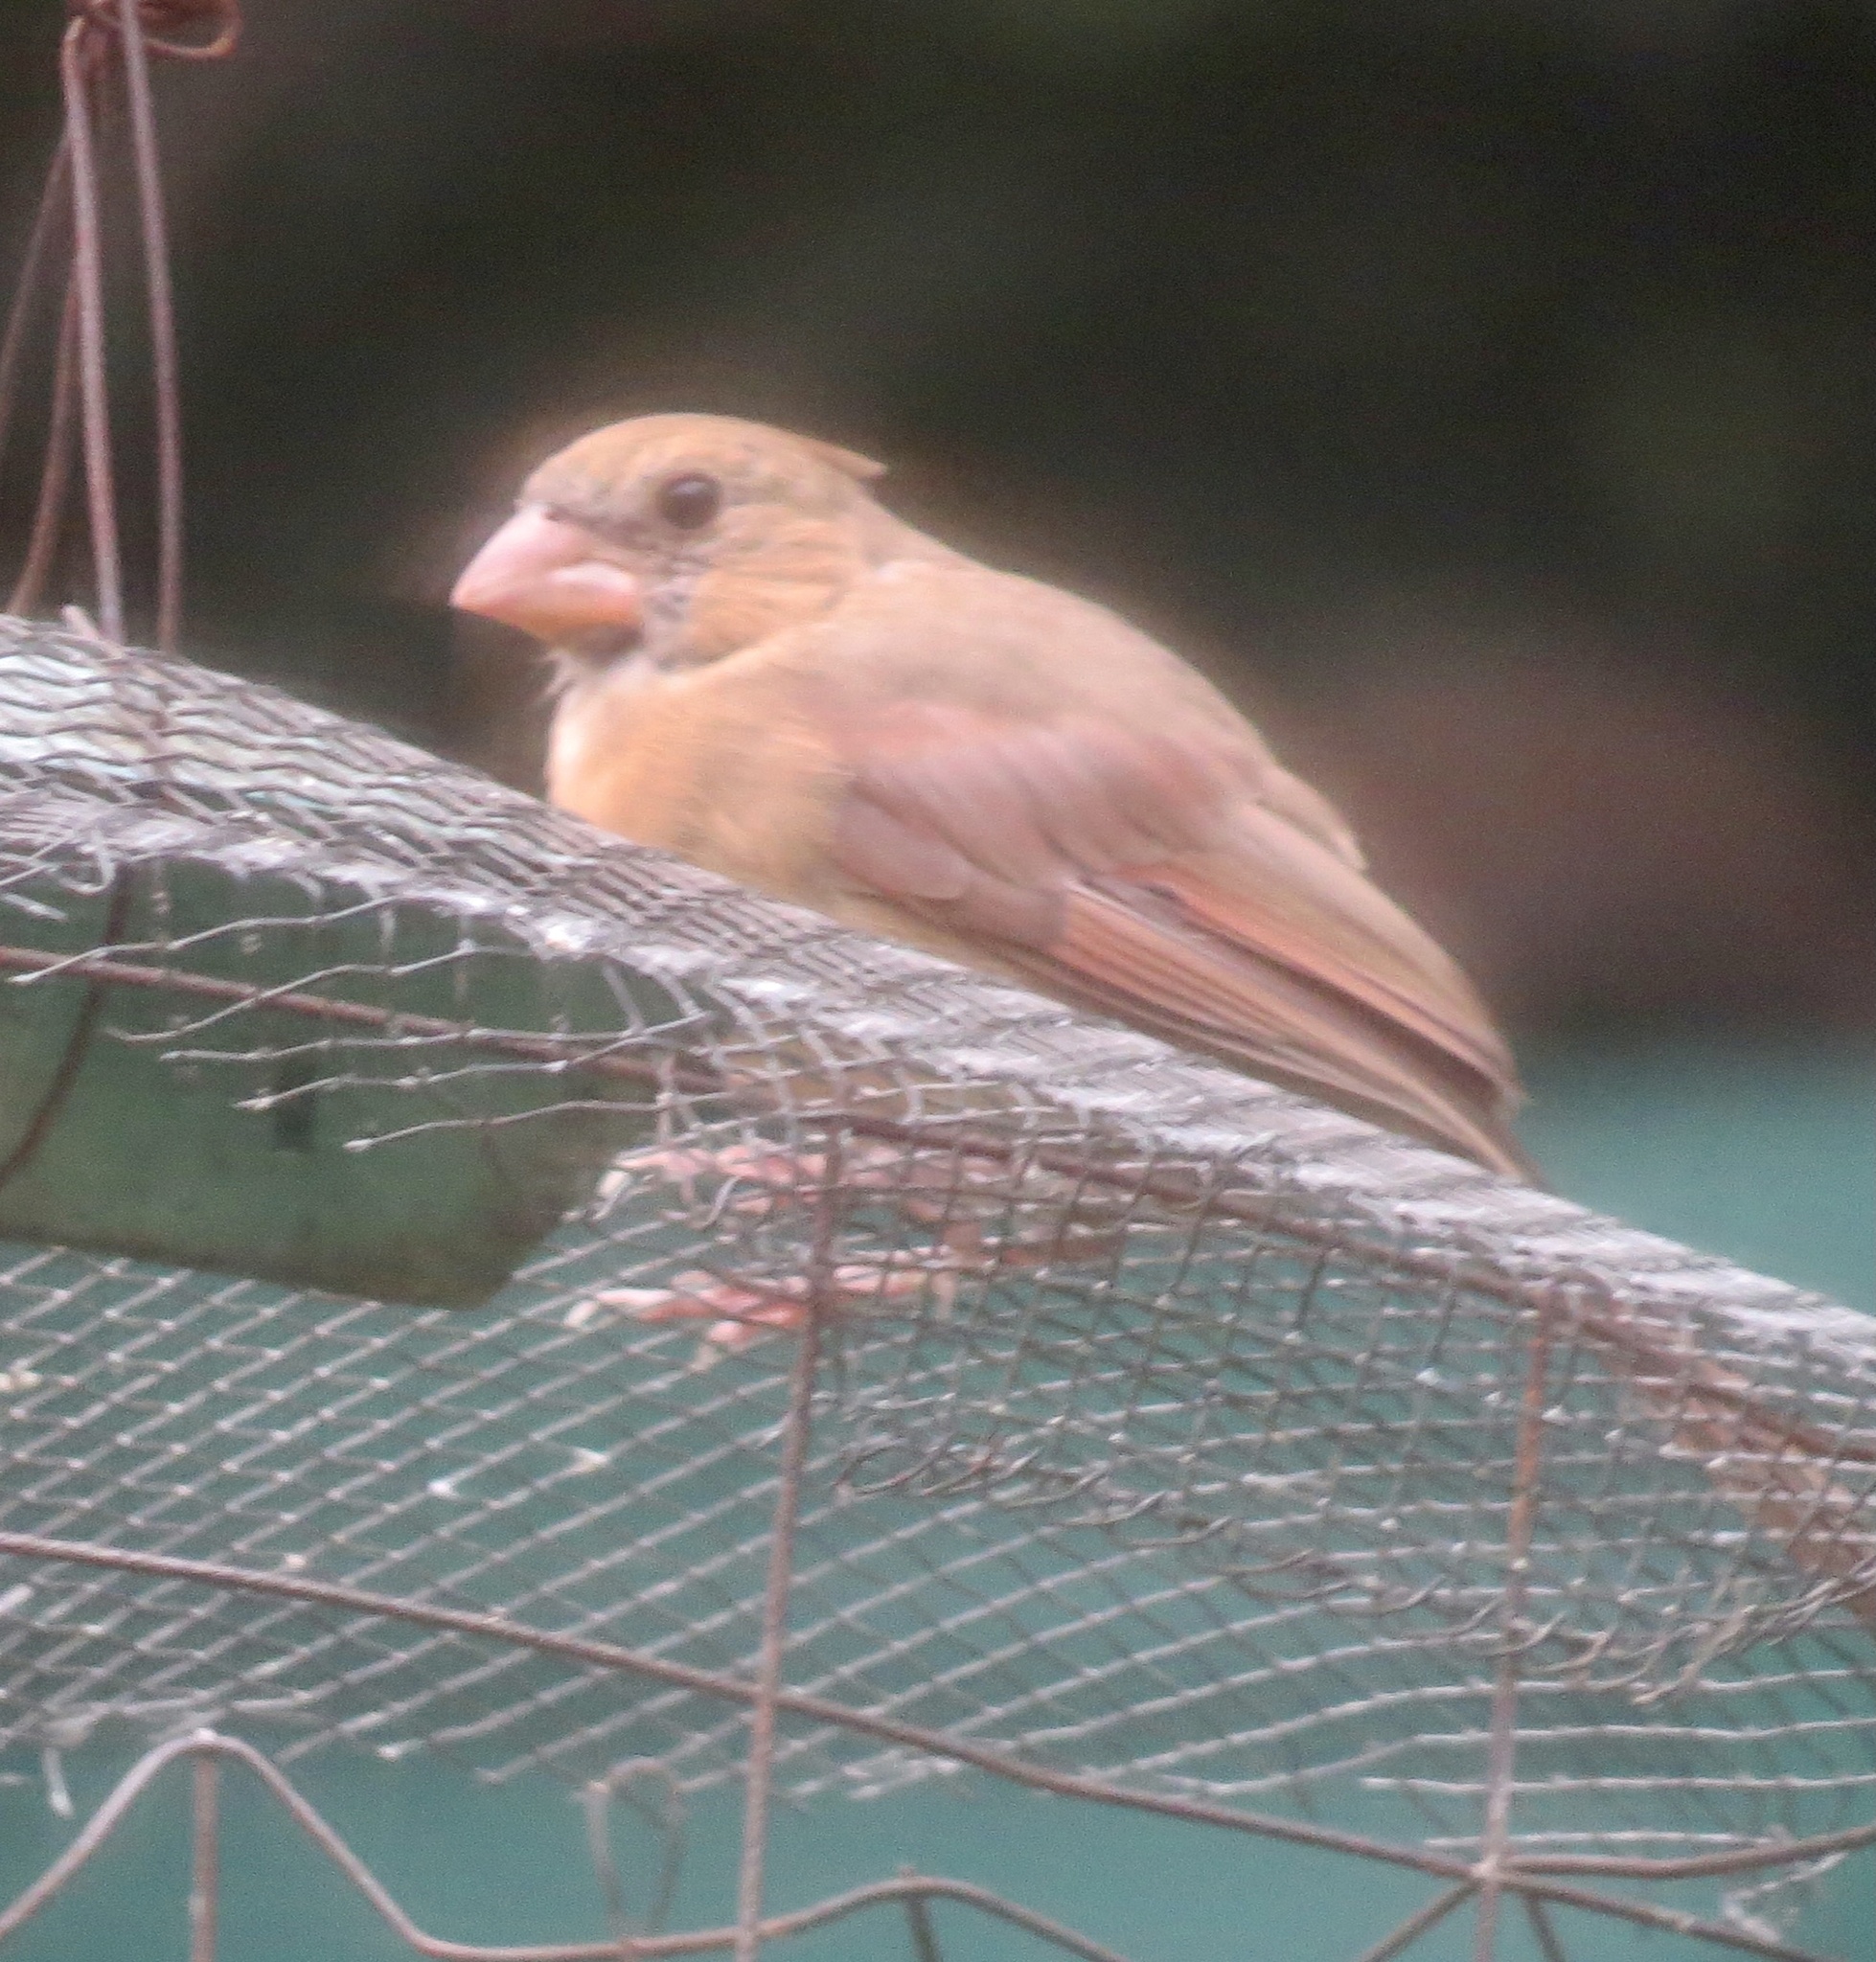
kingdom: Animalia
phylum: Chordata
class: Aves
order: Passeriformes
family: Cardinalidae
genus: Cardinalis
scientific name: Cardinalis cardinalis
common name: Northern cardinal
